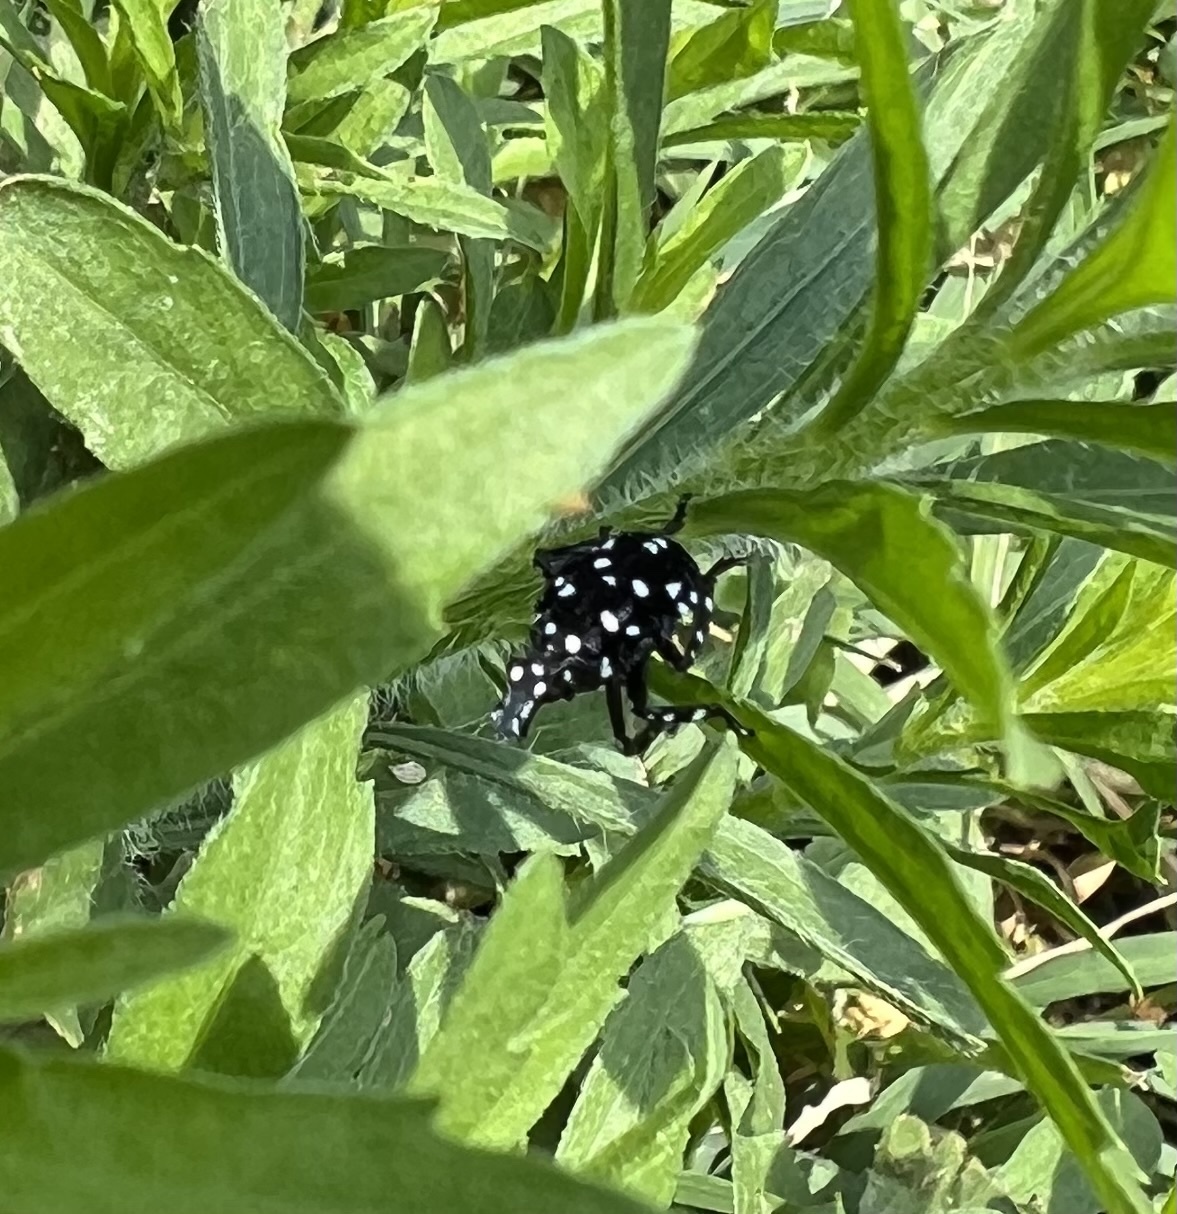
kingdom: Animalia
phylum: Arthropoda
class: Insecta
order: Hemiptera
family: Fulgoridae
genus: Lycorma
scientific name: Lycorma delicatula
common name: Spotted lanternfly
